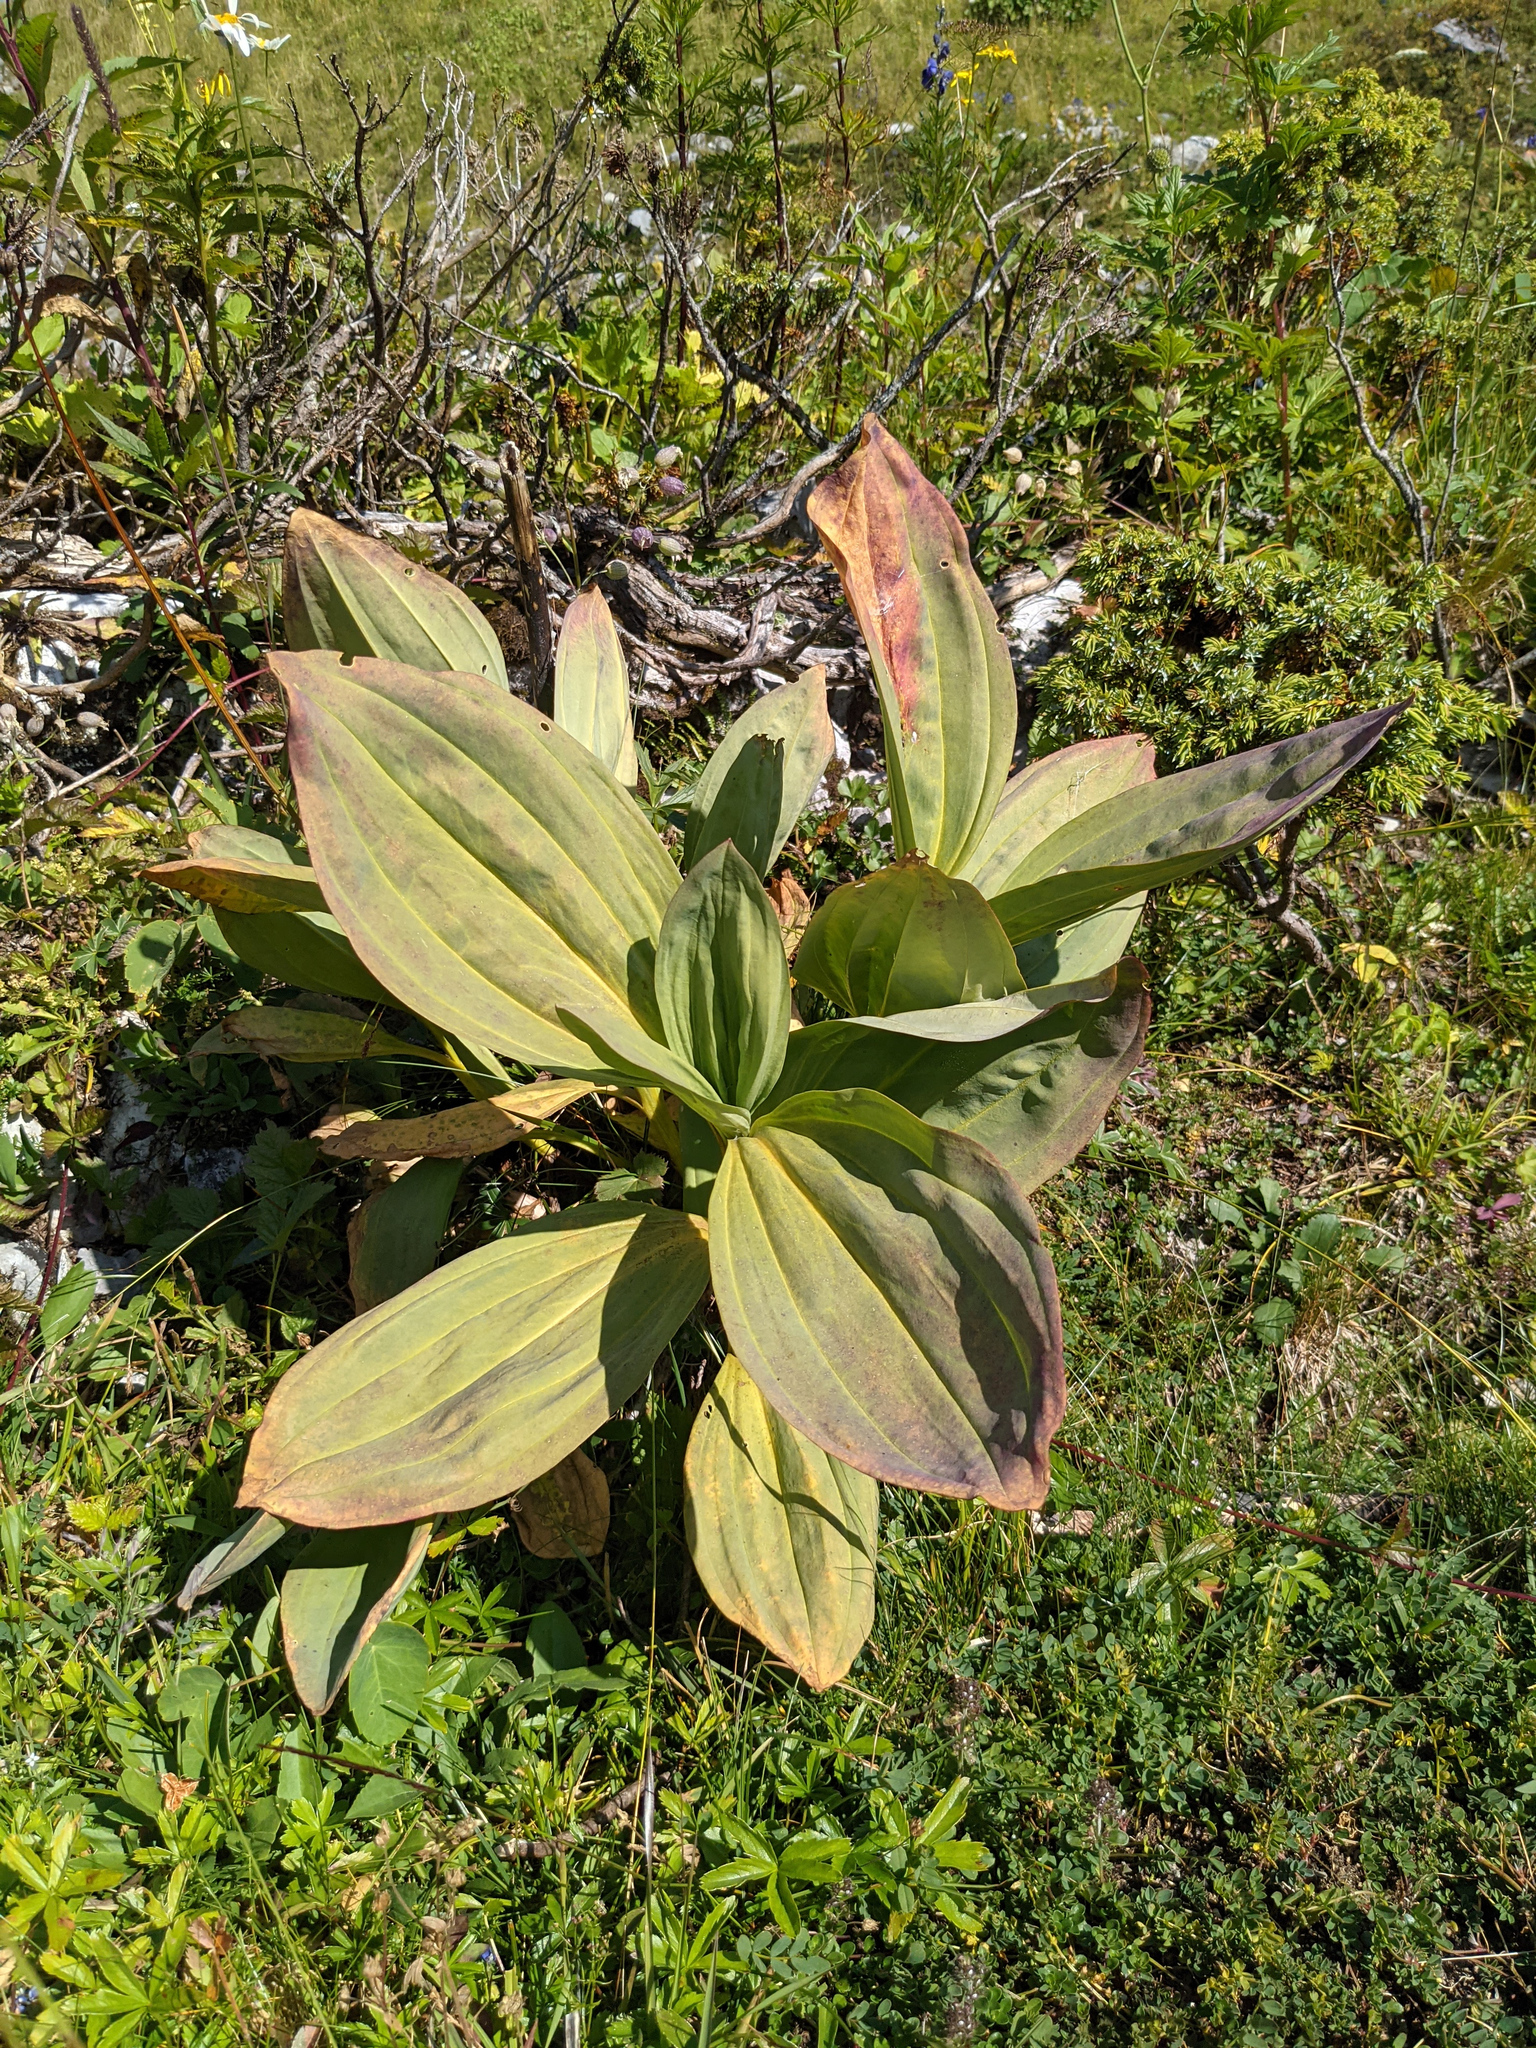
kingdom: Plantae
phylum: Tracheophyta
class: Magnoliopsida
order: Gentianales
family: Gentianaceae
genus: Gentiana
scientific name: Gentiana lutea
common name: Great yellow gentian
